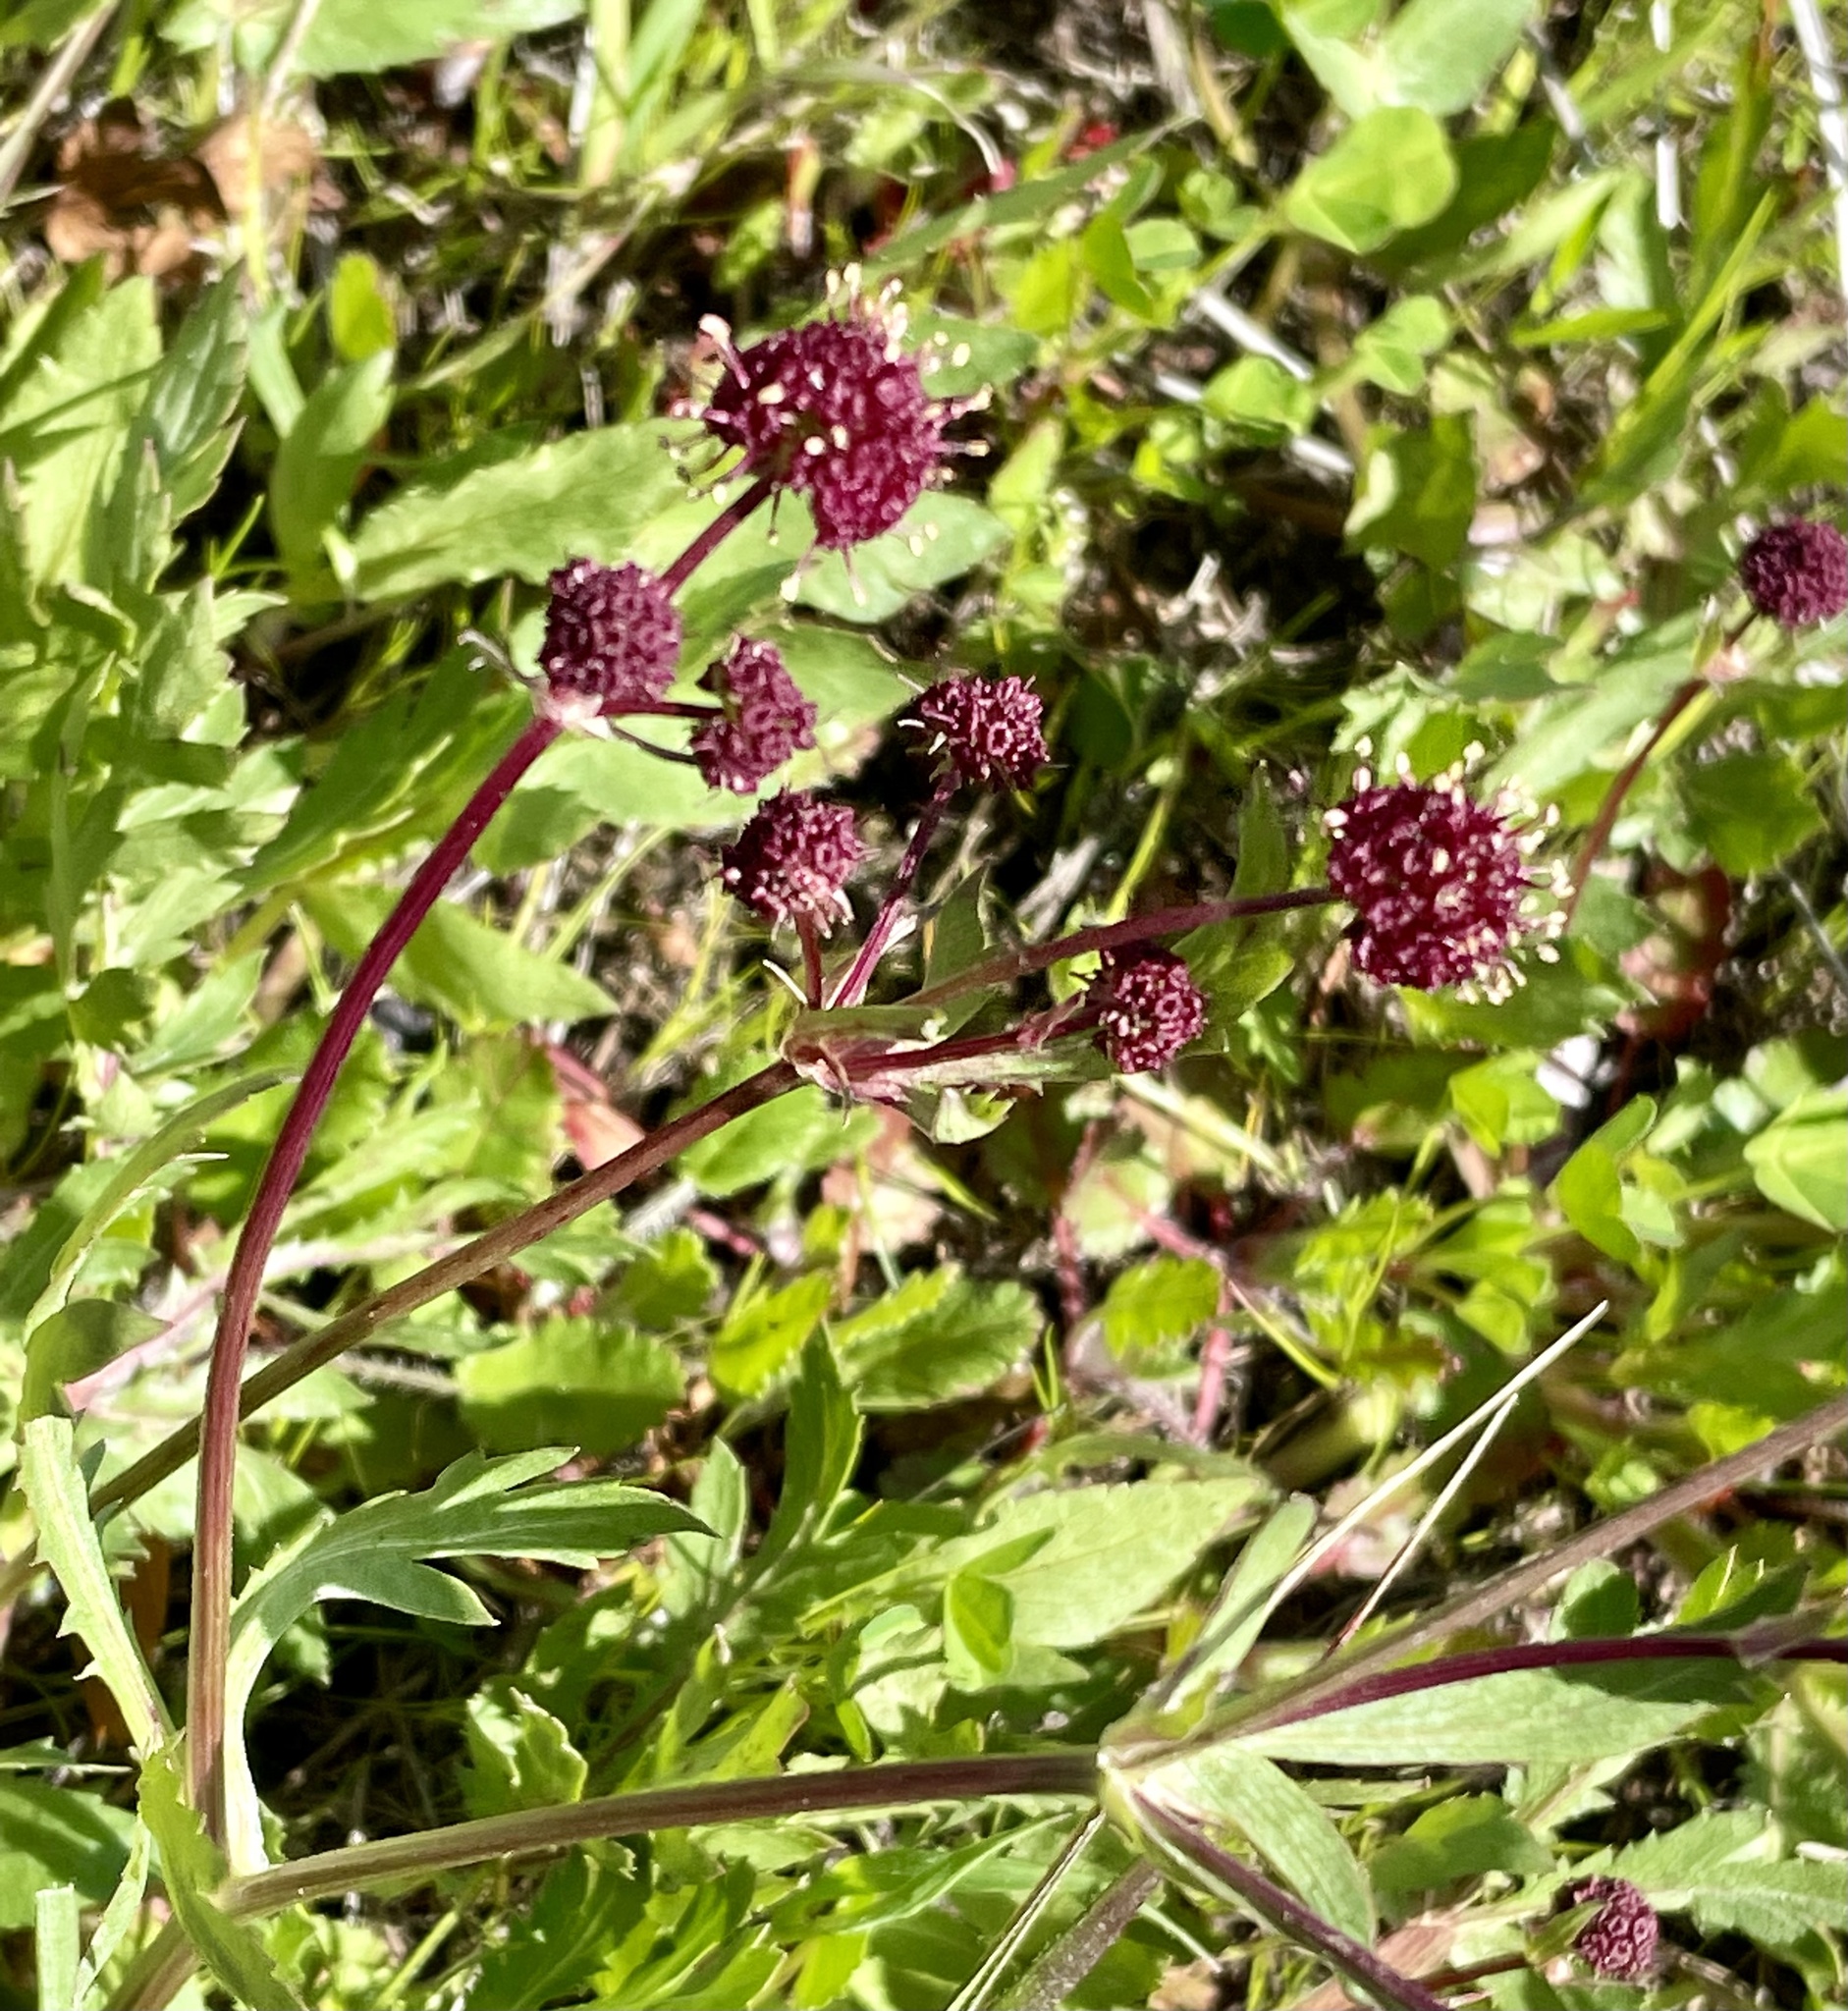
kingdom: Plantae
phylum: Tracheophyta
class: Magnoliopsida
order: Apiales
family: Apiaceae
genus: Sanicula
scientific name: Sanicula bipinnatifida
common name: Shoe-buttons
